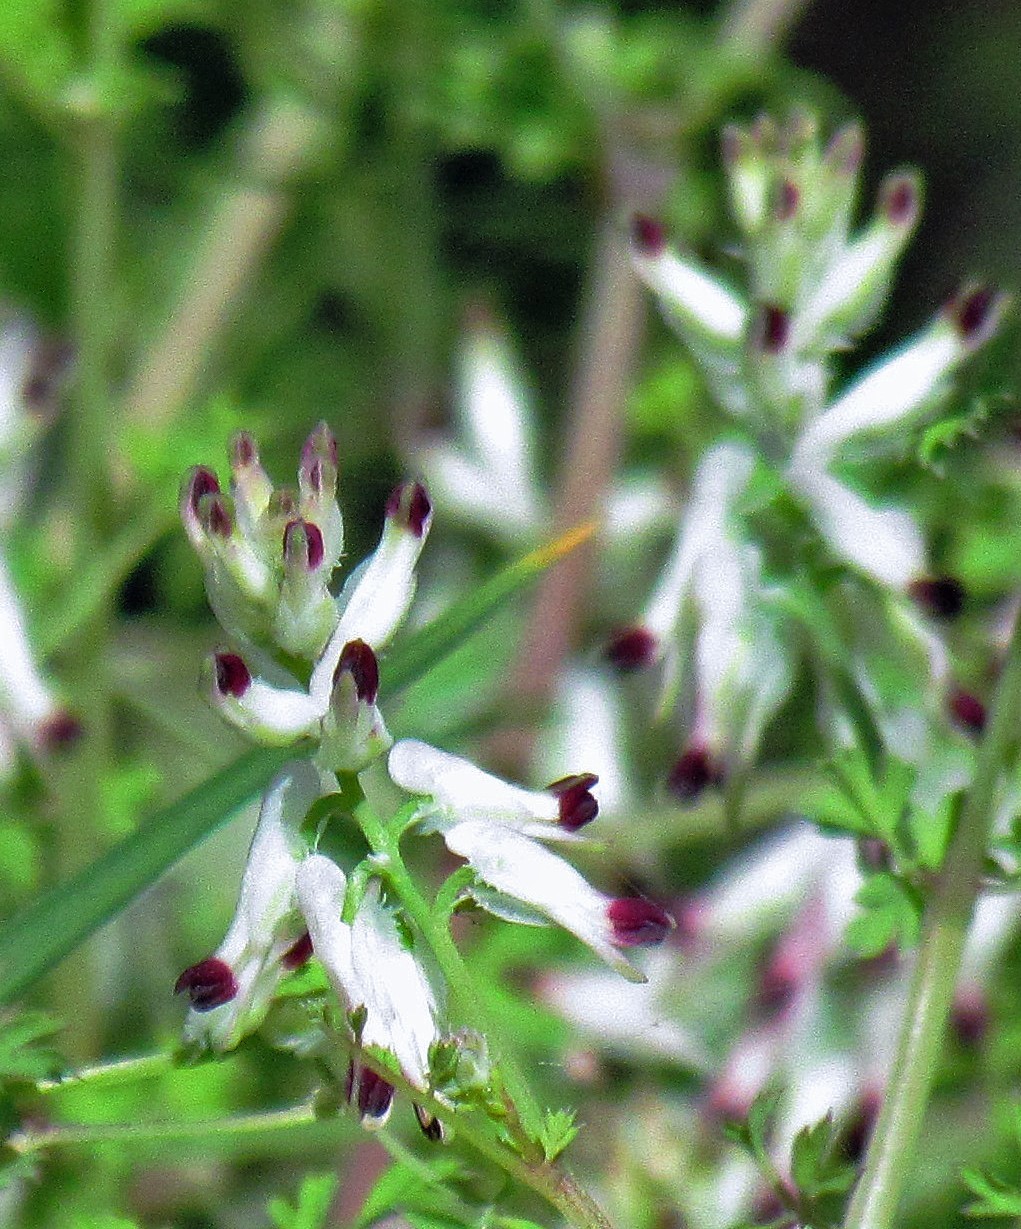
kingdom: Plantae
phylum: Tracheophyta
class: Magnoliopsida
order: Ranunculales
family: Papaveraceae
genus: Fumaria
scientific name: Fumaria capreolata
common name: White ramping-fumitory
